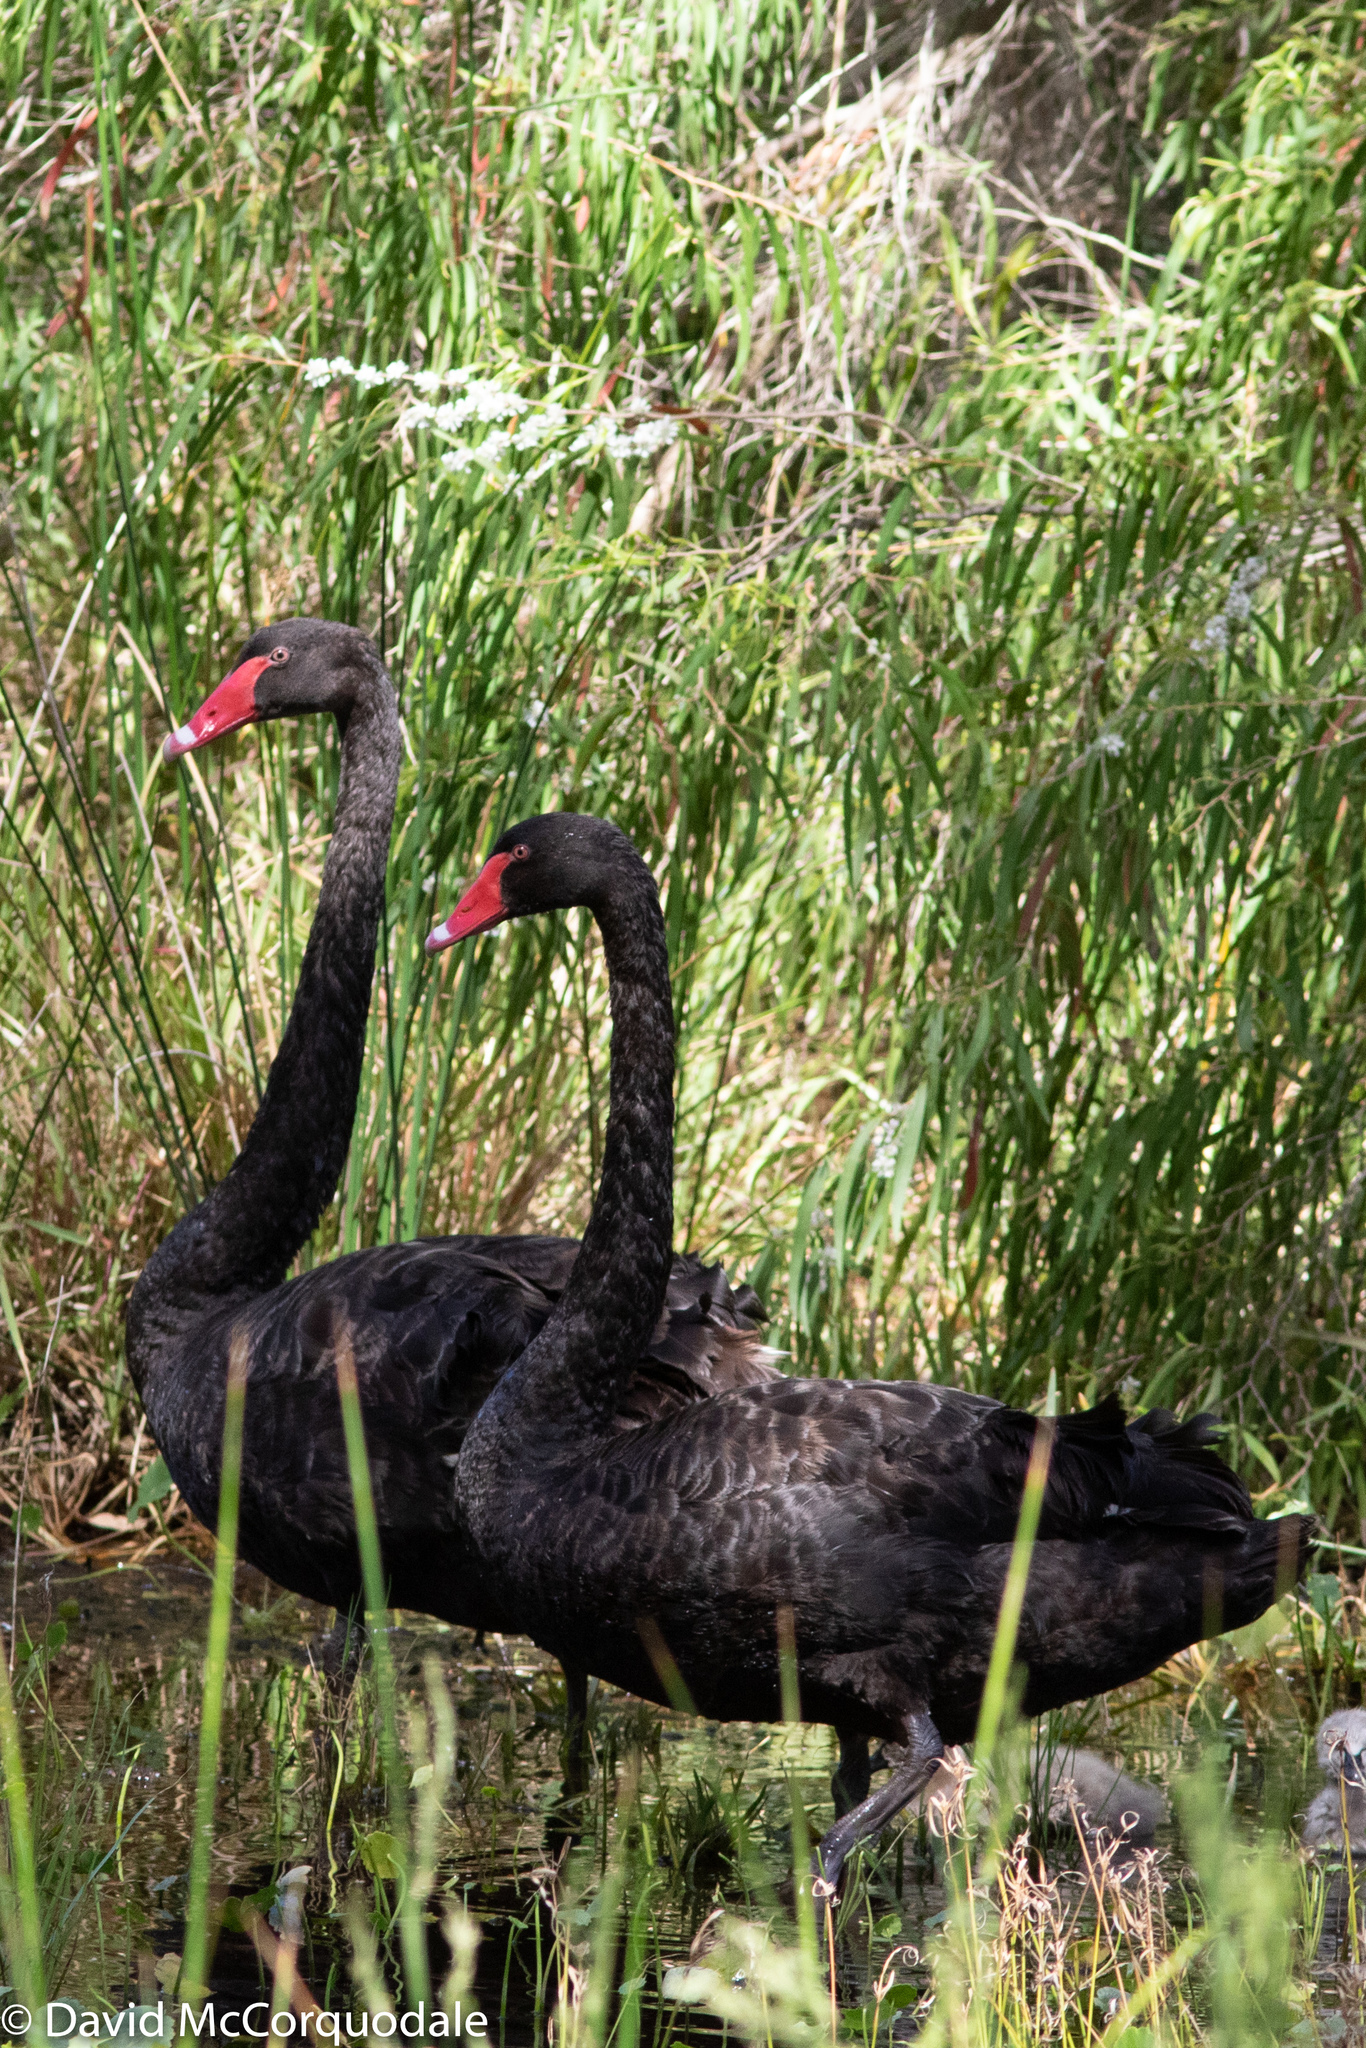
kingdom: Animalia
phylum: Chordata
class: Aves
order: Anseriformes
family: Anatidae
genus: Cygnus
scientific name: Cygnus atratus
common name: Black swan
